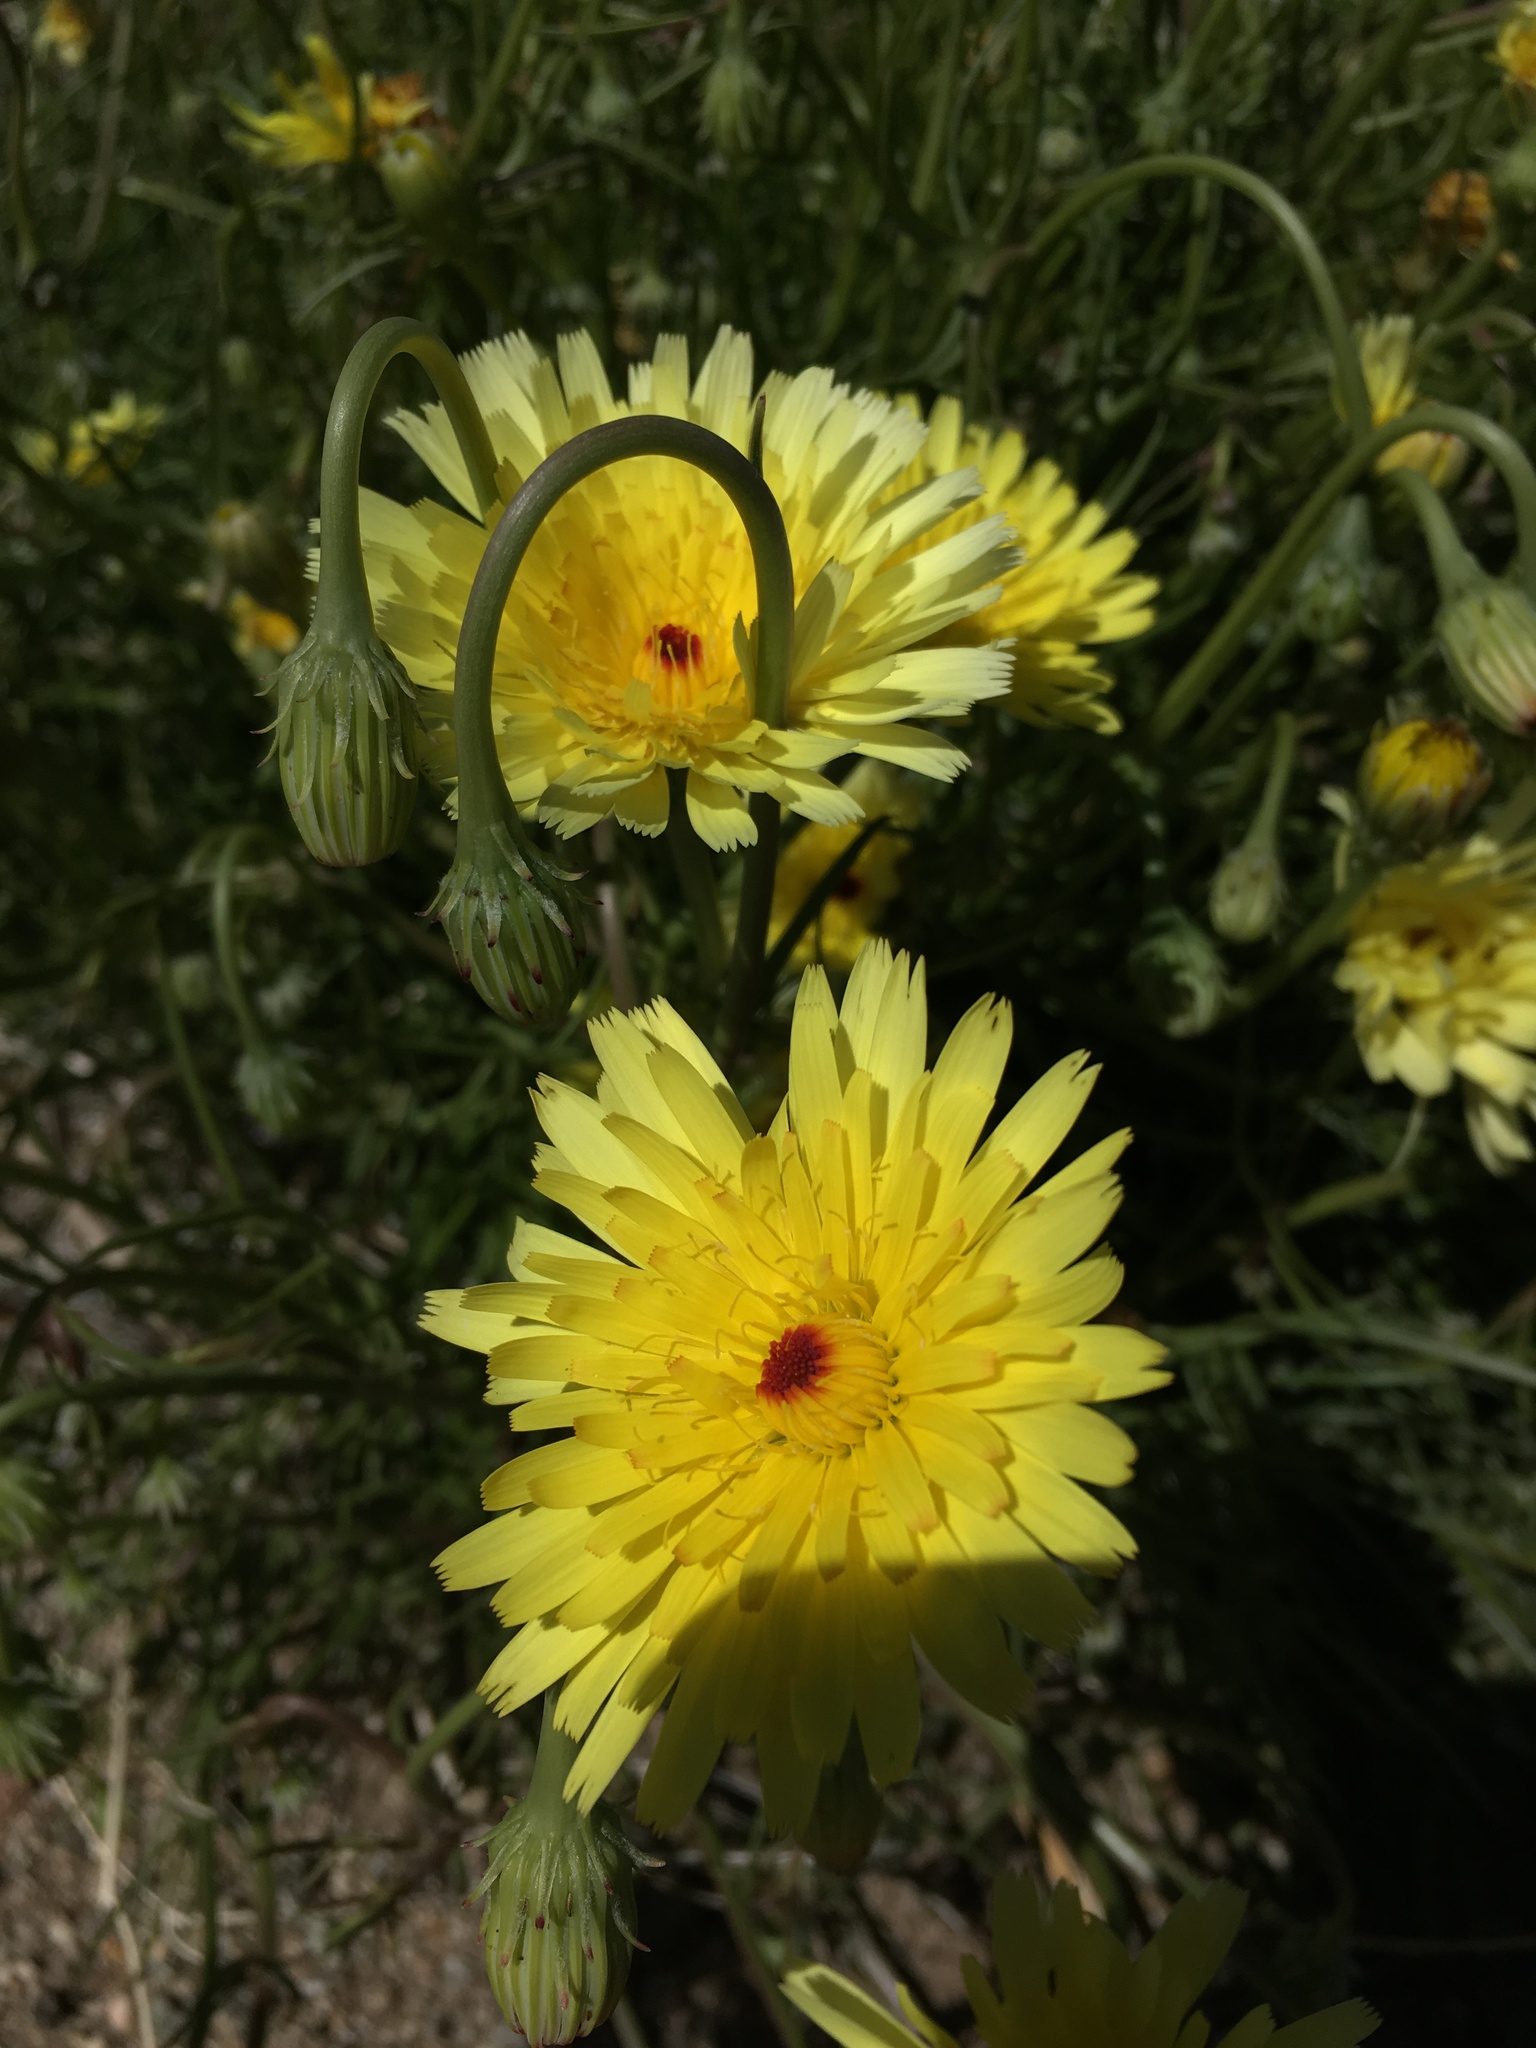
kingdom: Plantae
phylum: Tracheophyta
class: Magnoliopsida
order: Asterales
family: Asteraceae
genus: Malacothrix
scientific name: Malacothrix glabrata
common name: Smooth desert-dandelion
